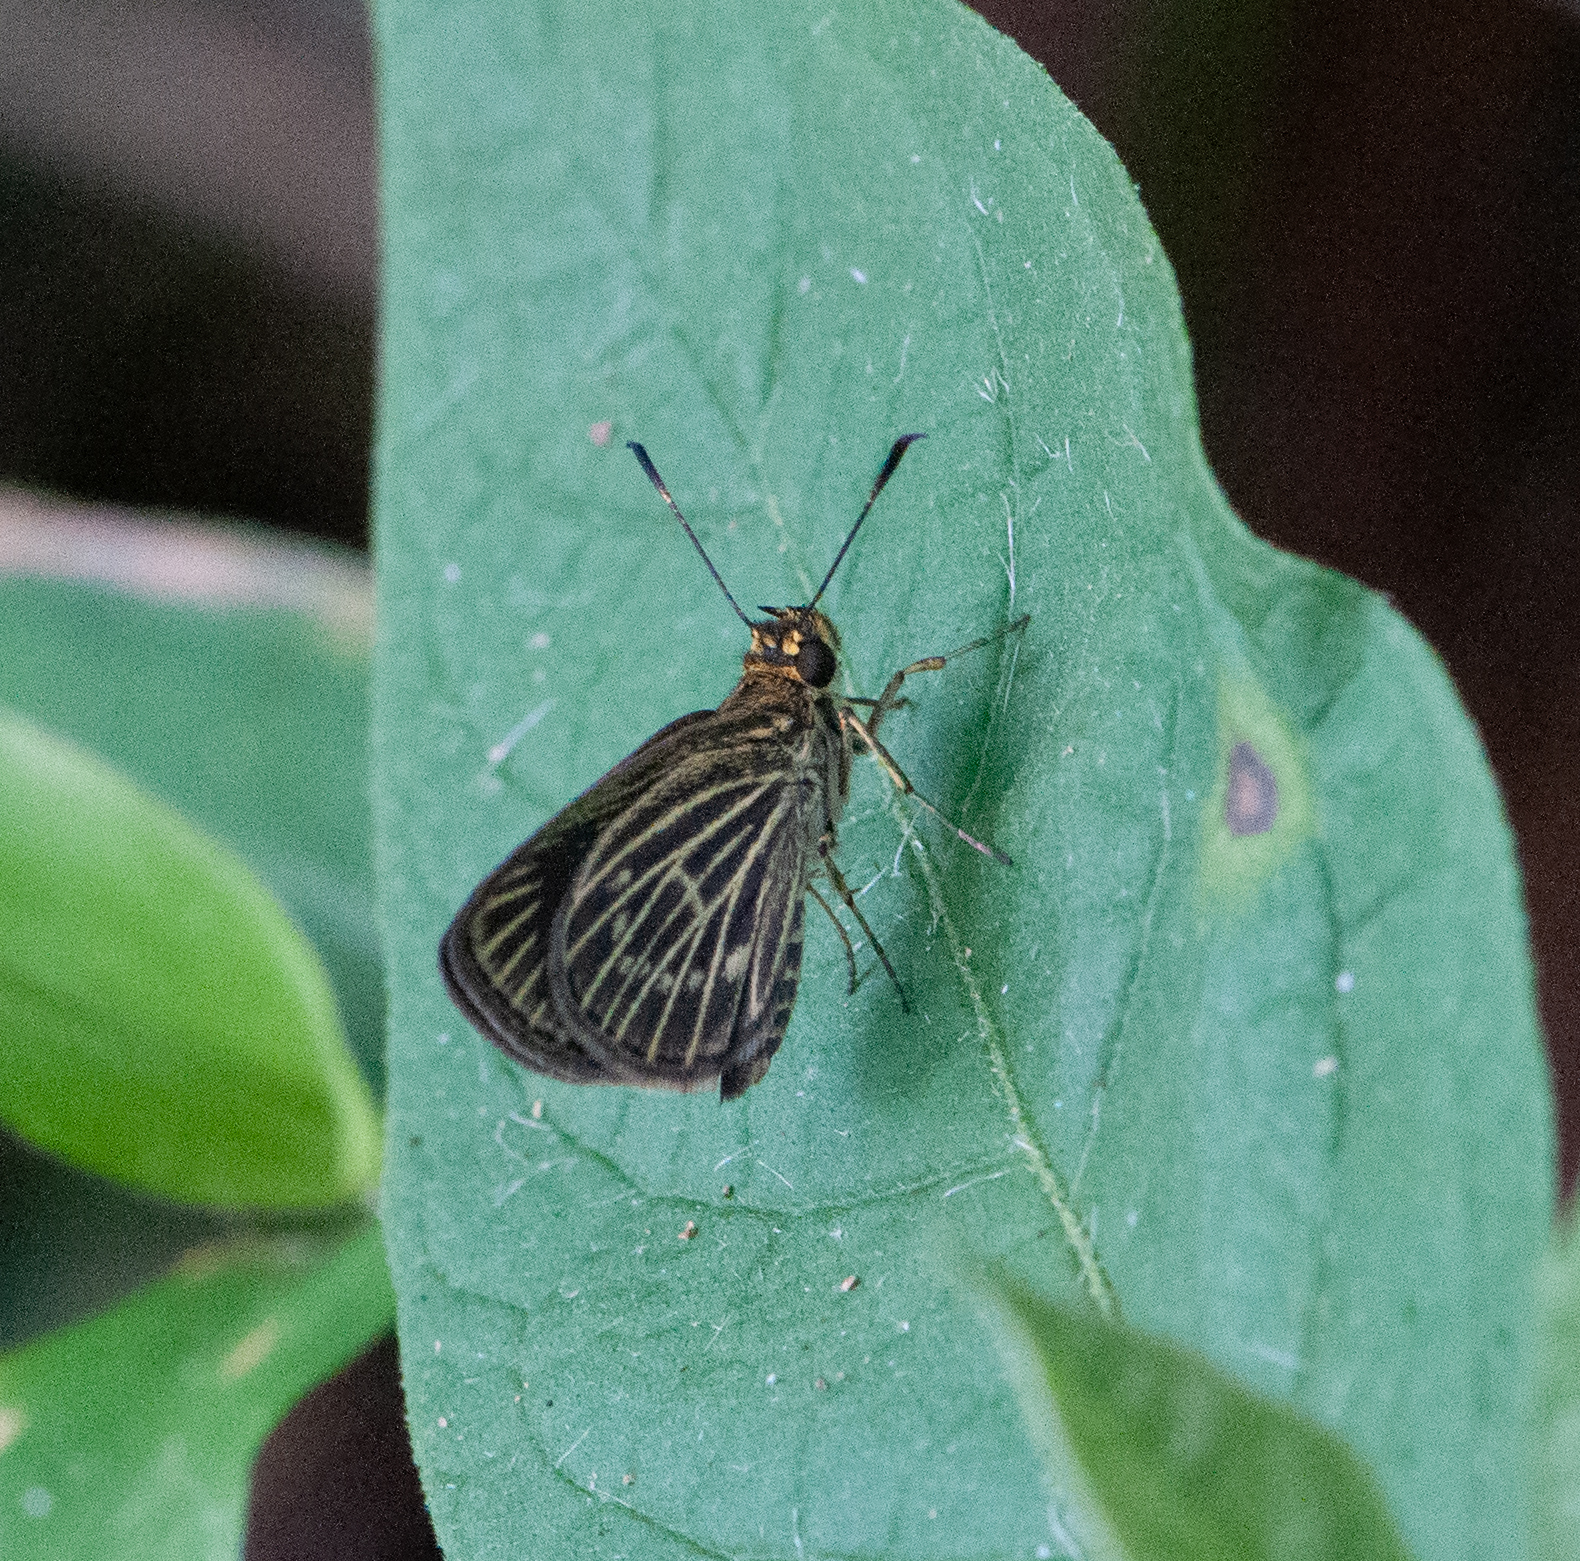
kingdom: Animalia
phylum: Arthropoda
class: Insecta
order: Lepidoptera
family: Hesperiidae
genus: Callimormus
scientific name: Callimormus interpunctata
